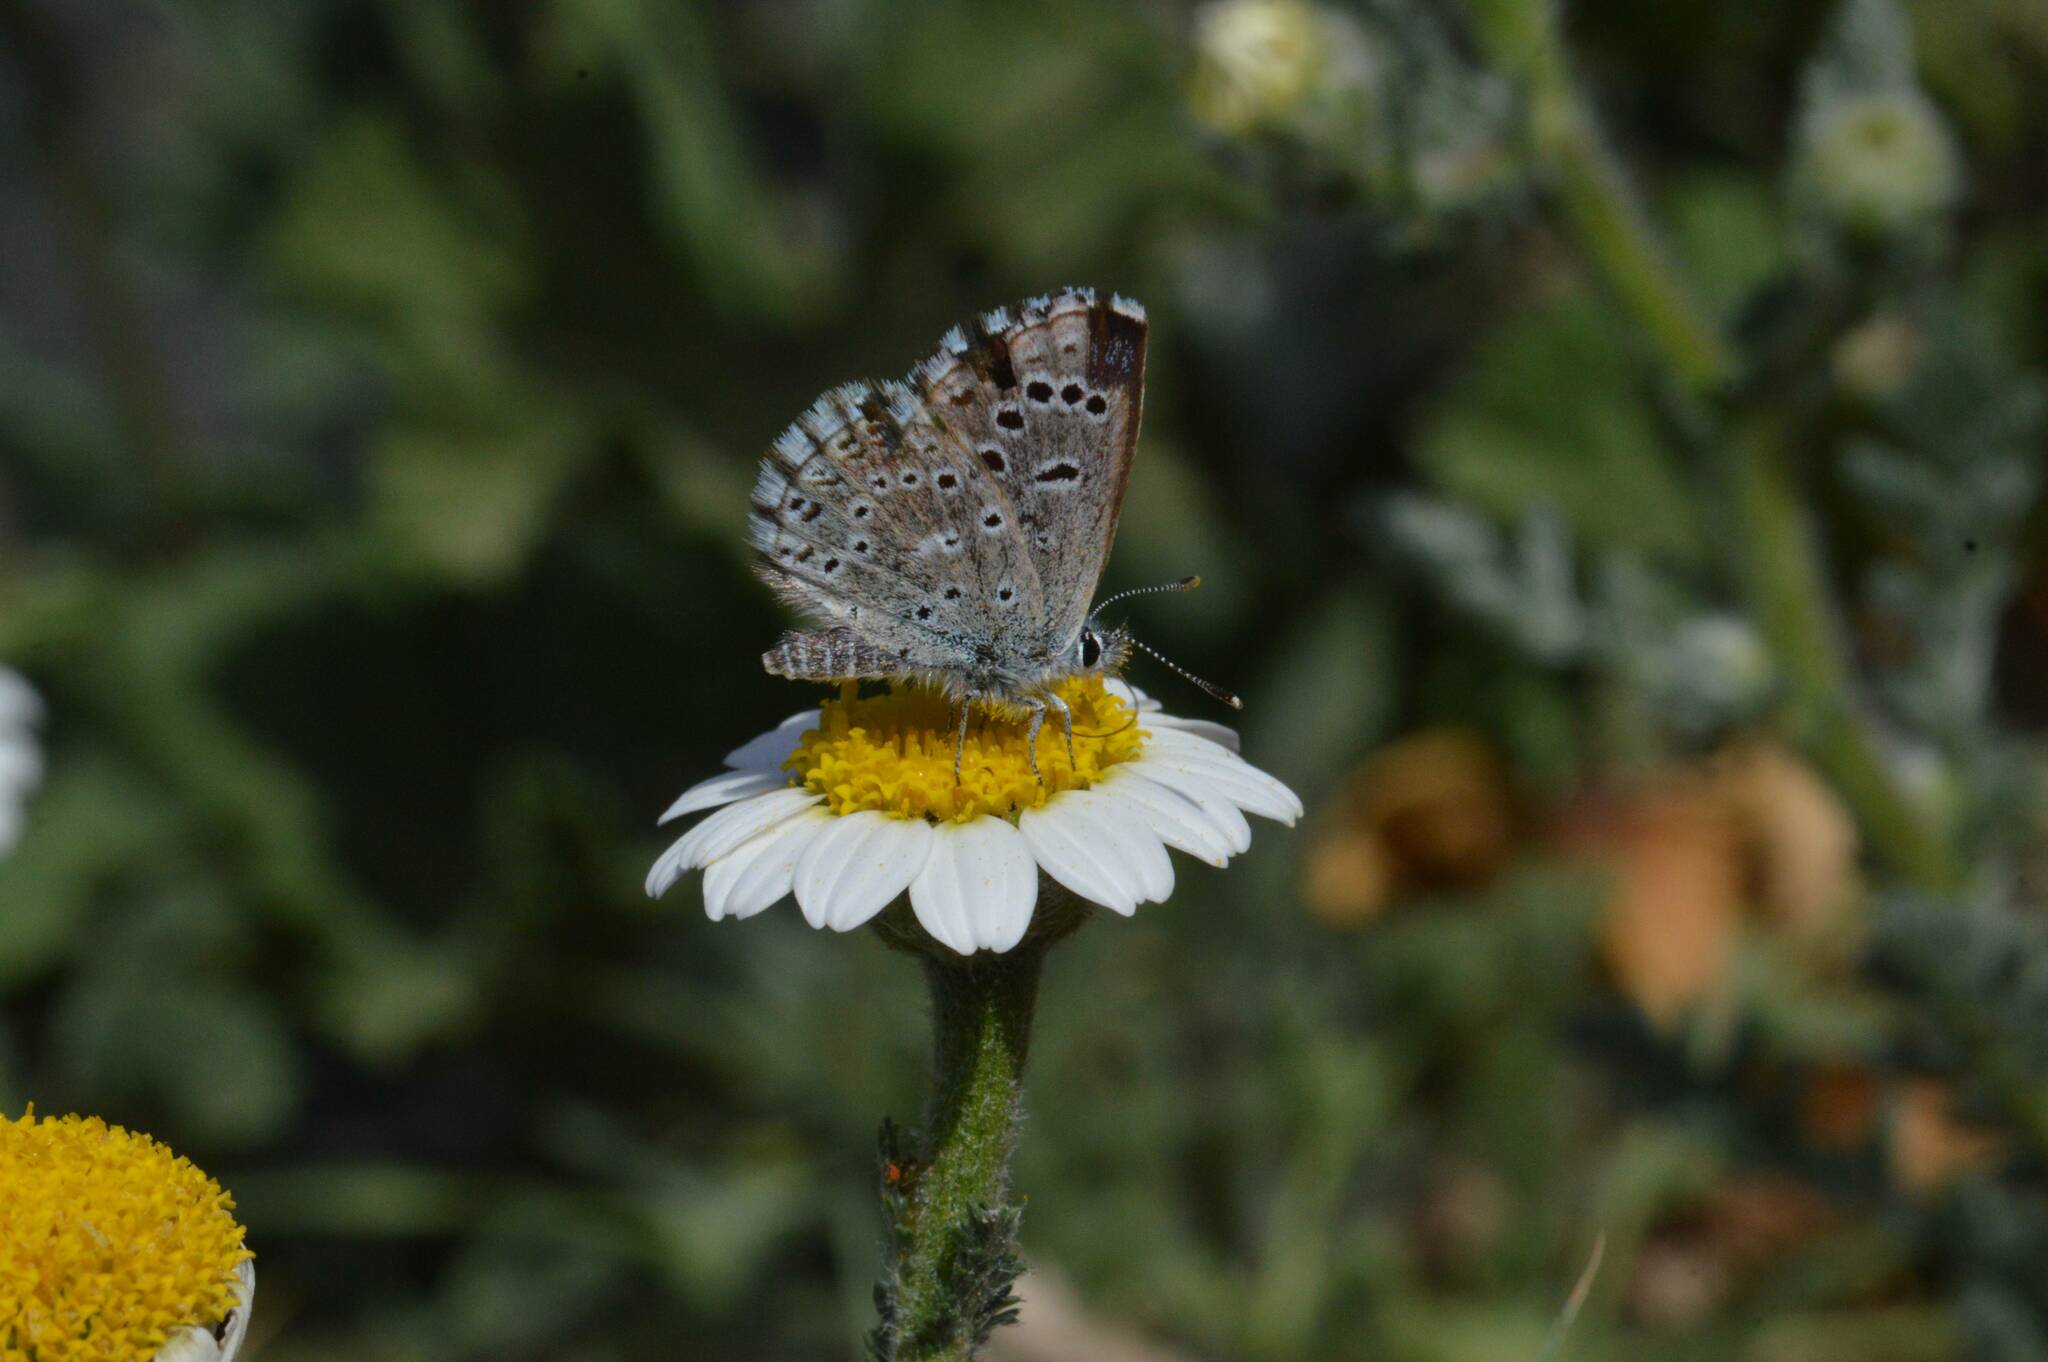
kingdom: Animalia
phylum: Arthropoda
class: Insecta
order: Lepidoptera
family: Lycaenidae
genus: Pseudophilotes
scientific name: Pseudophilotes abencerragus
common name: False baton blue
